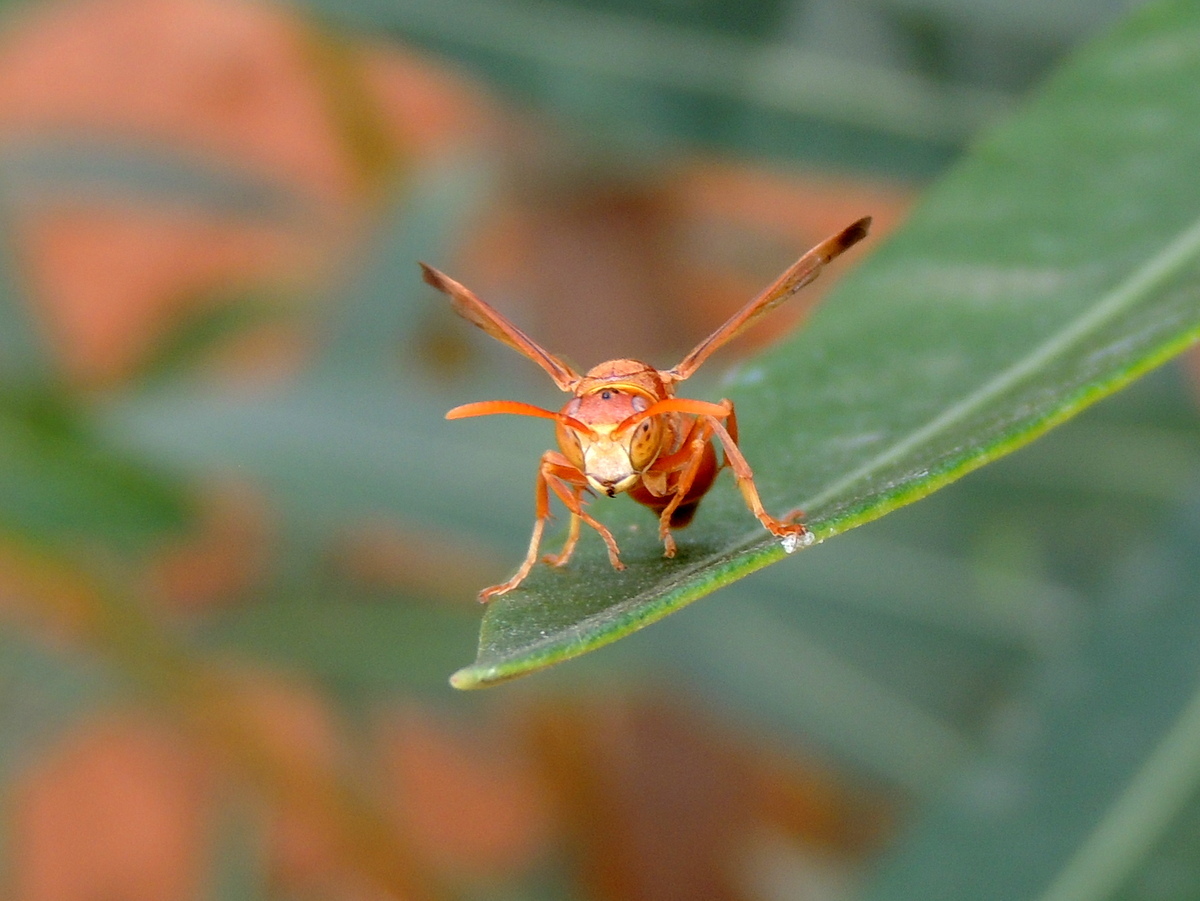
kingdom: Animalia
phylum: Arthropoda
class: Insecta
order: Hymenoptera
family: Eumenidae
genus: Polistes
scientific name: Polistes stigma
